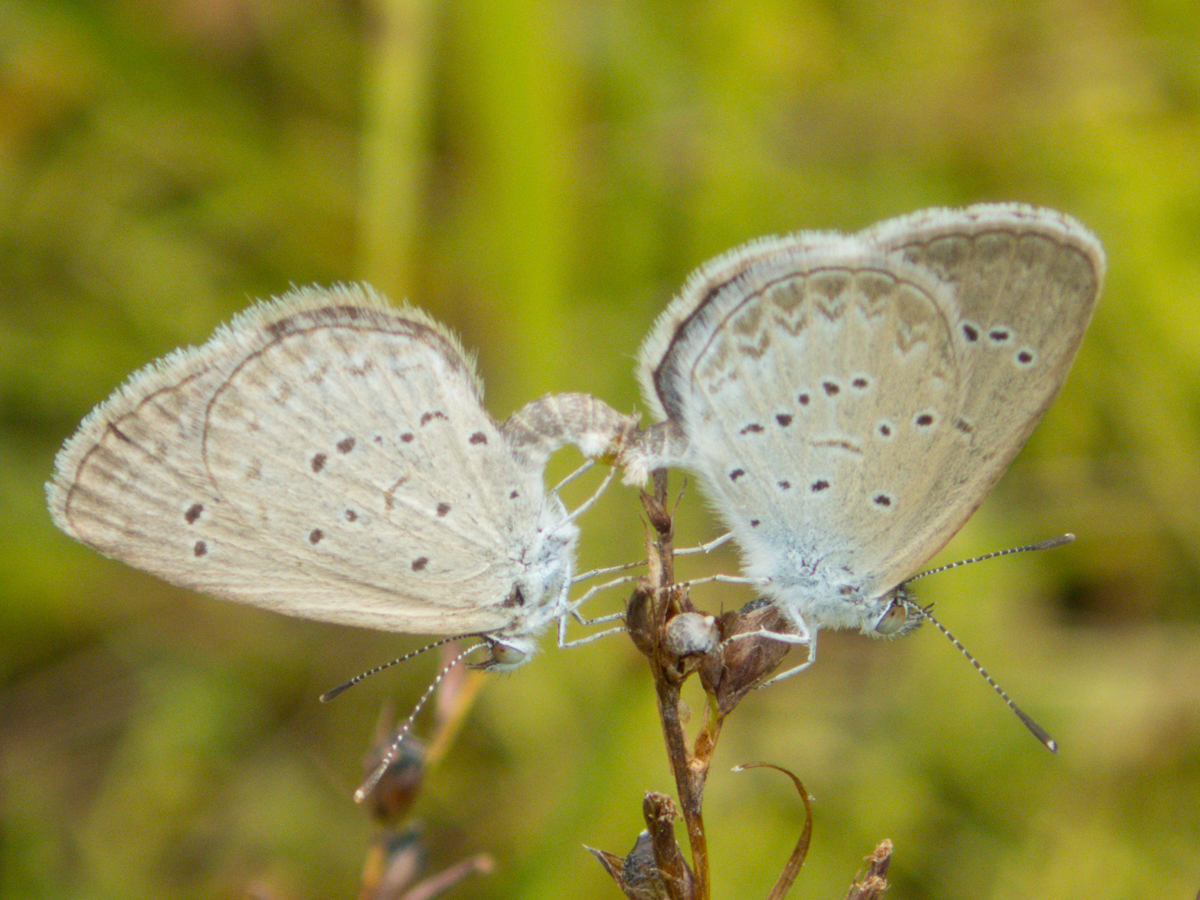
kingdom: Animalia
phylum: Arthropoda
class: Insecta
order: Lepidoptera
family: Lycaenidae
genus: Zizina
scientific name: Zizina otis
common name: Lesser grass blue
